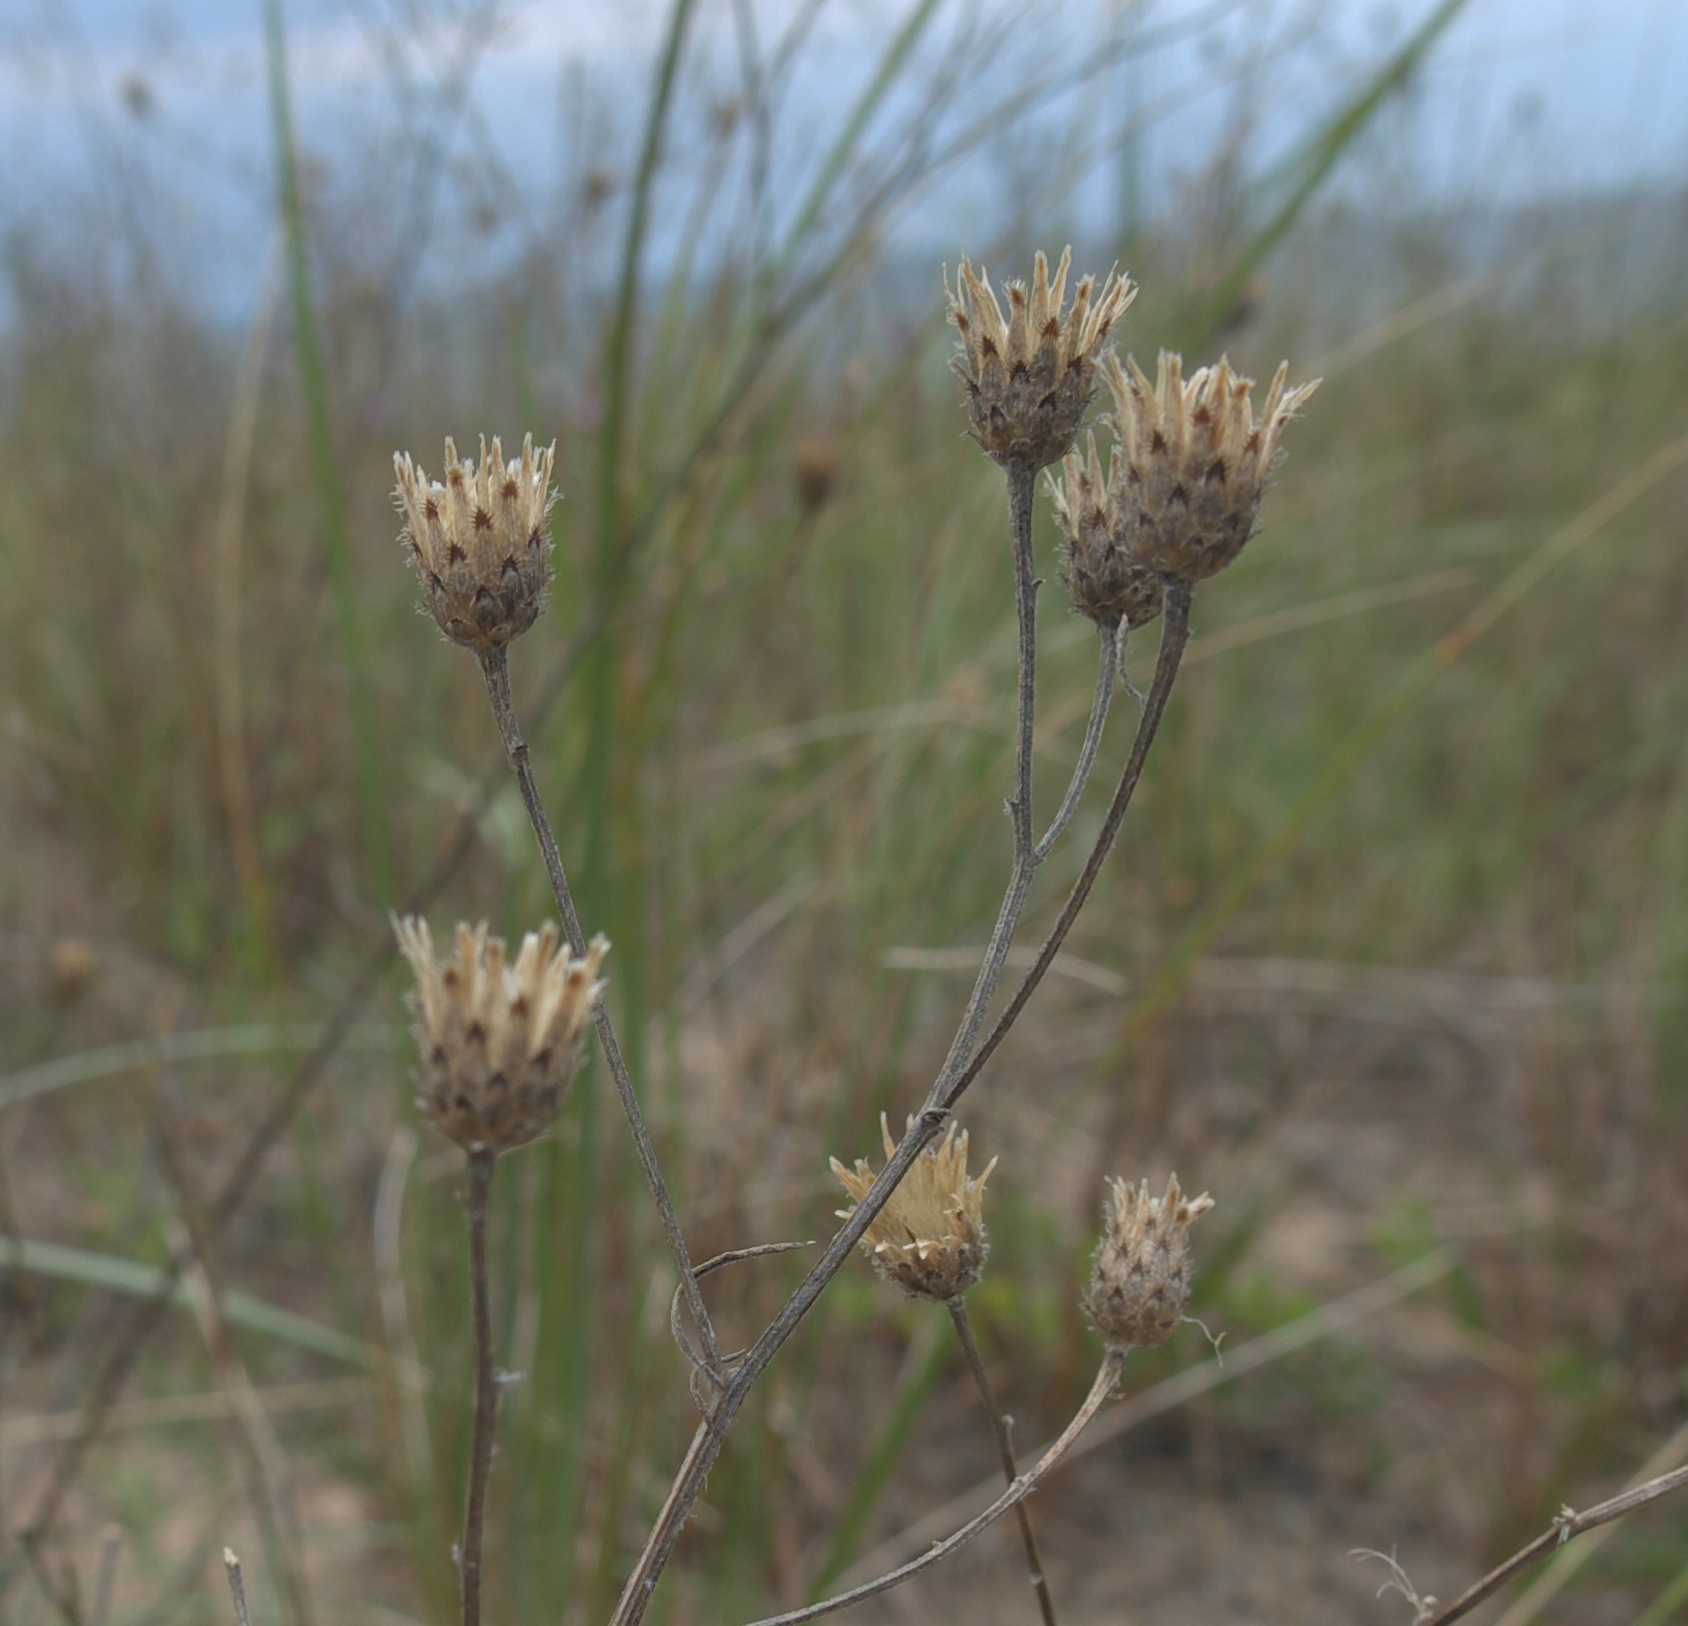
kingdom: Plantae
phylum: Tracheophyta
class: Magnoliopsida
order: Asterales
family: Asteraceae
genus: Centaurea
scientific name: Centaurea stoebe
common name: Spotted knapweed
